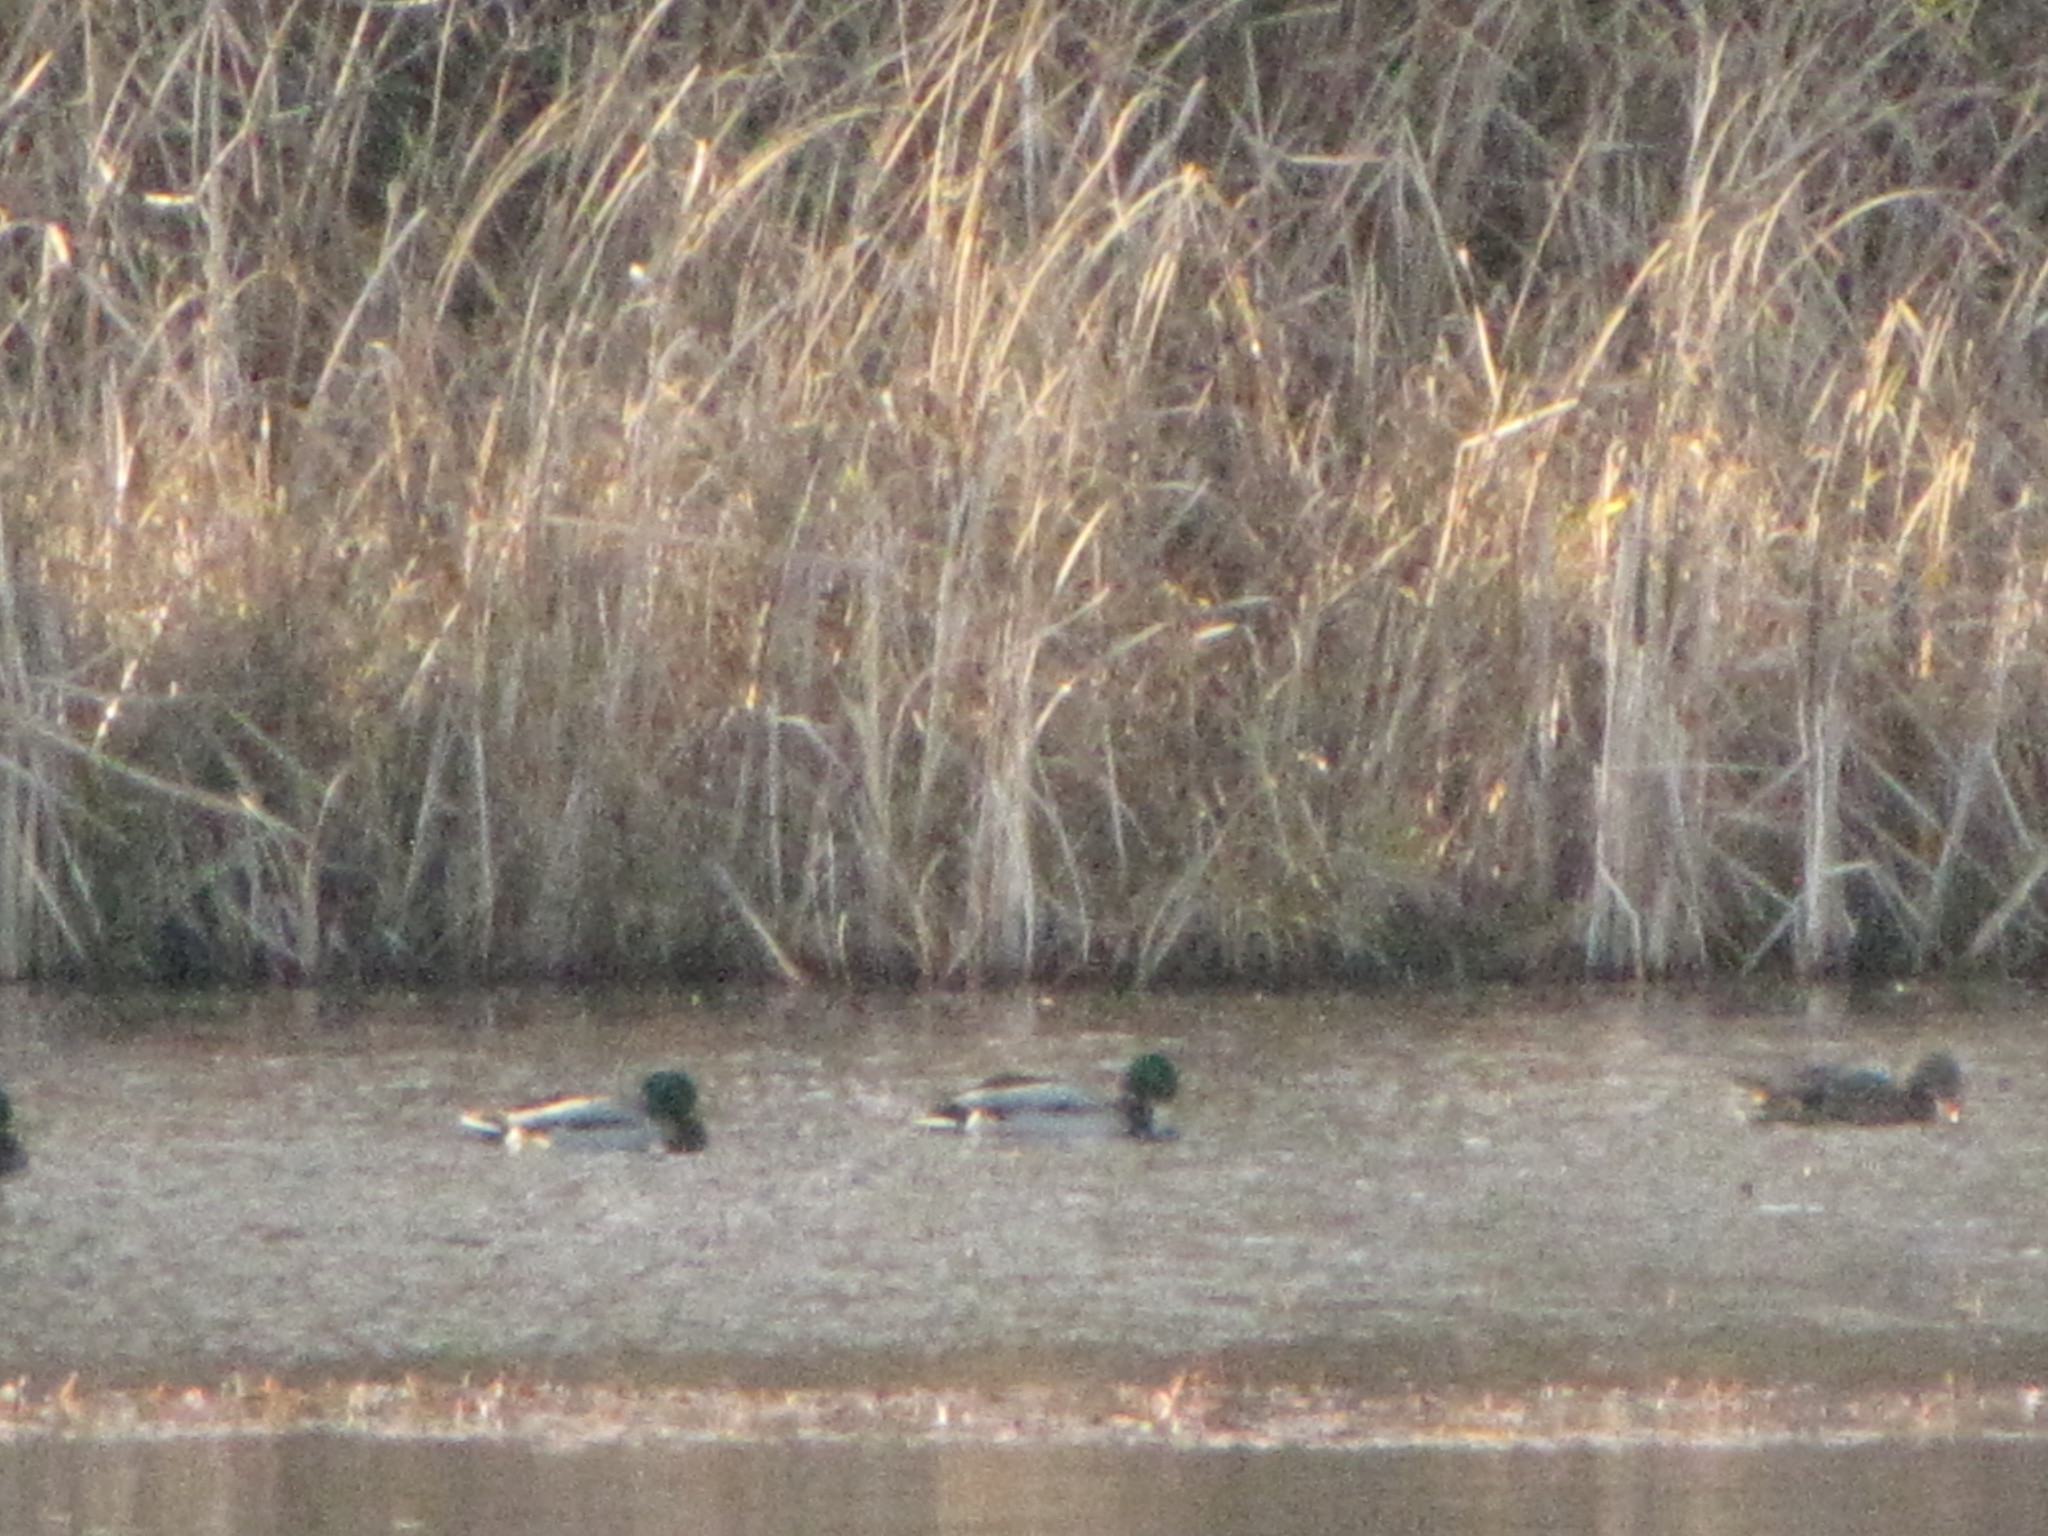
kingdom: Animalia
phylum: Chordata
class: Aves
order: Anseriformes
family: Anatidae
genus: Anas
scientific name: Anas platyrhynchos
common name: Mallard
